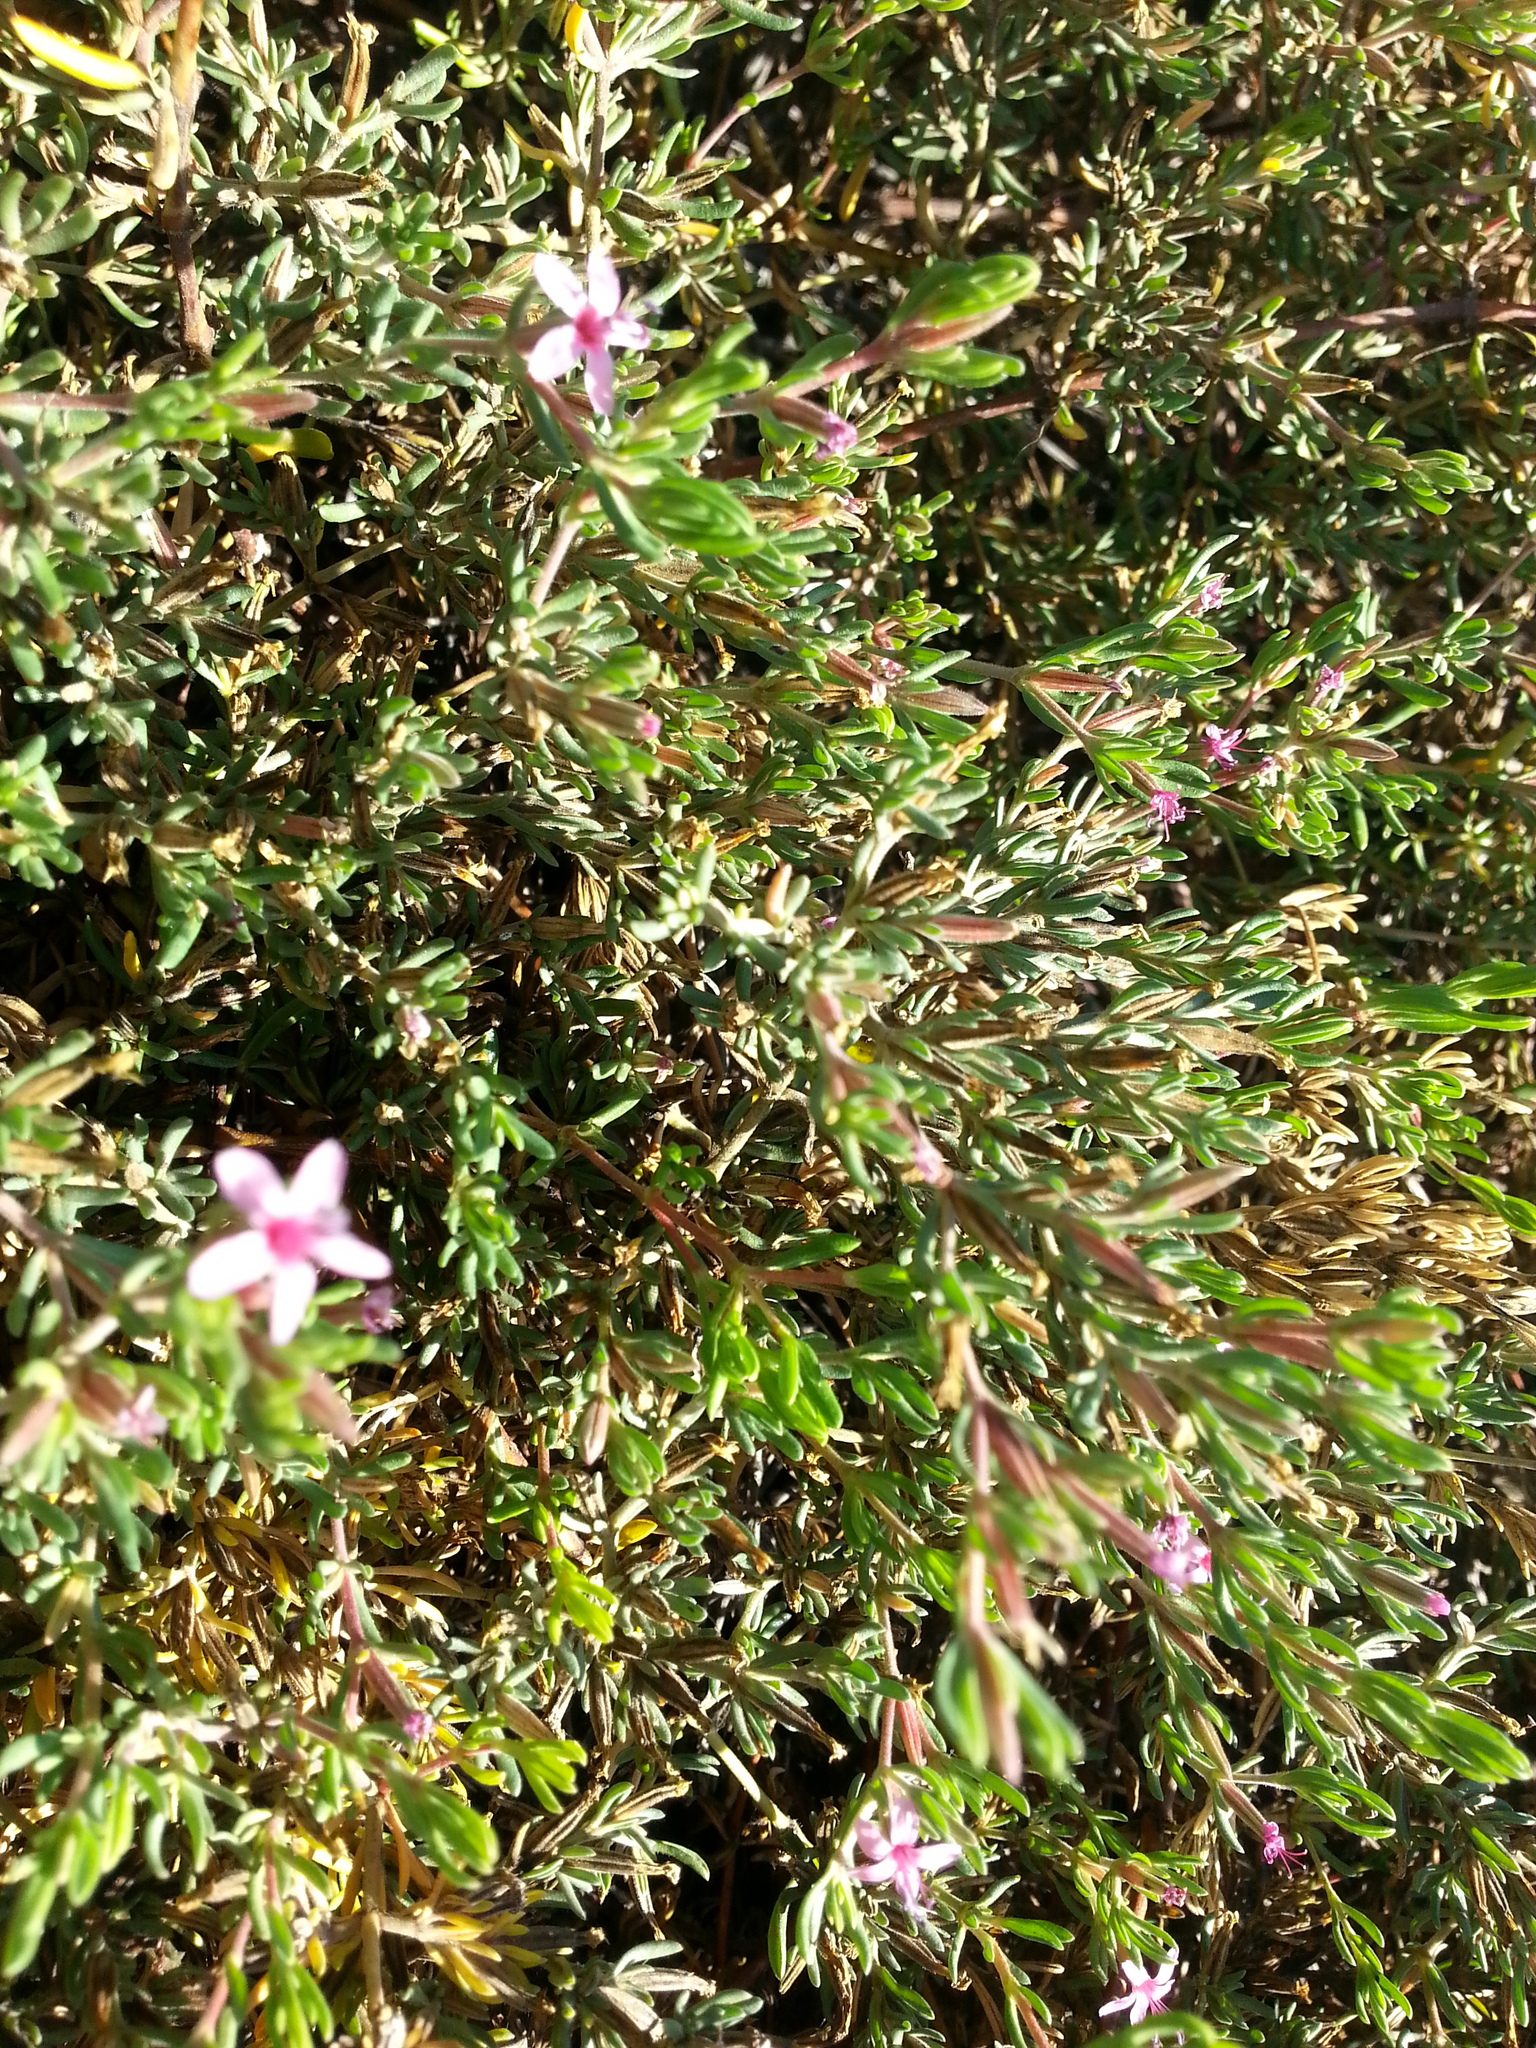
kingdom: Plantae
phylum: Tracheophyta
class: Magnoliopsida
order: Caryophyllales
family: Frankeniaceae
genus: Frankenia
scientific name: Frankenia salina
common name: Alkali seaheath
